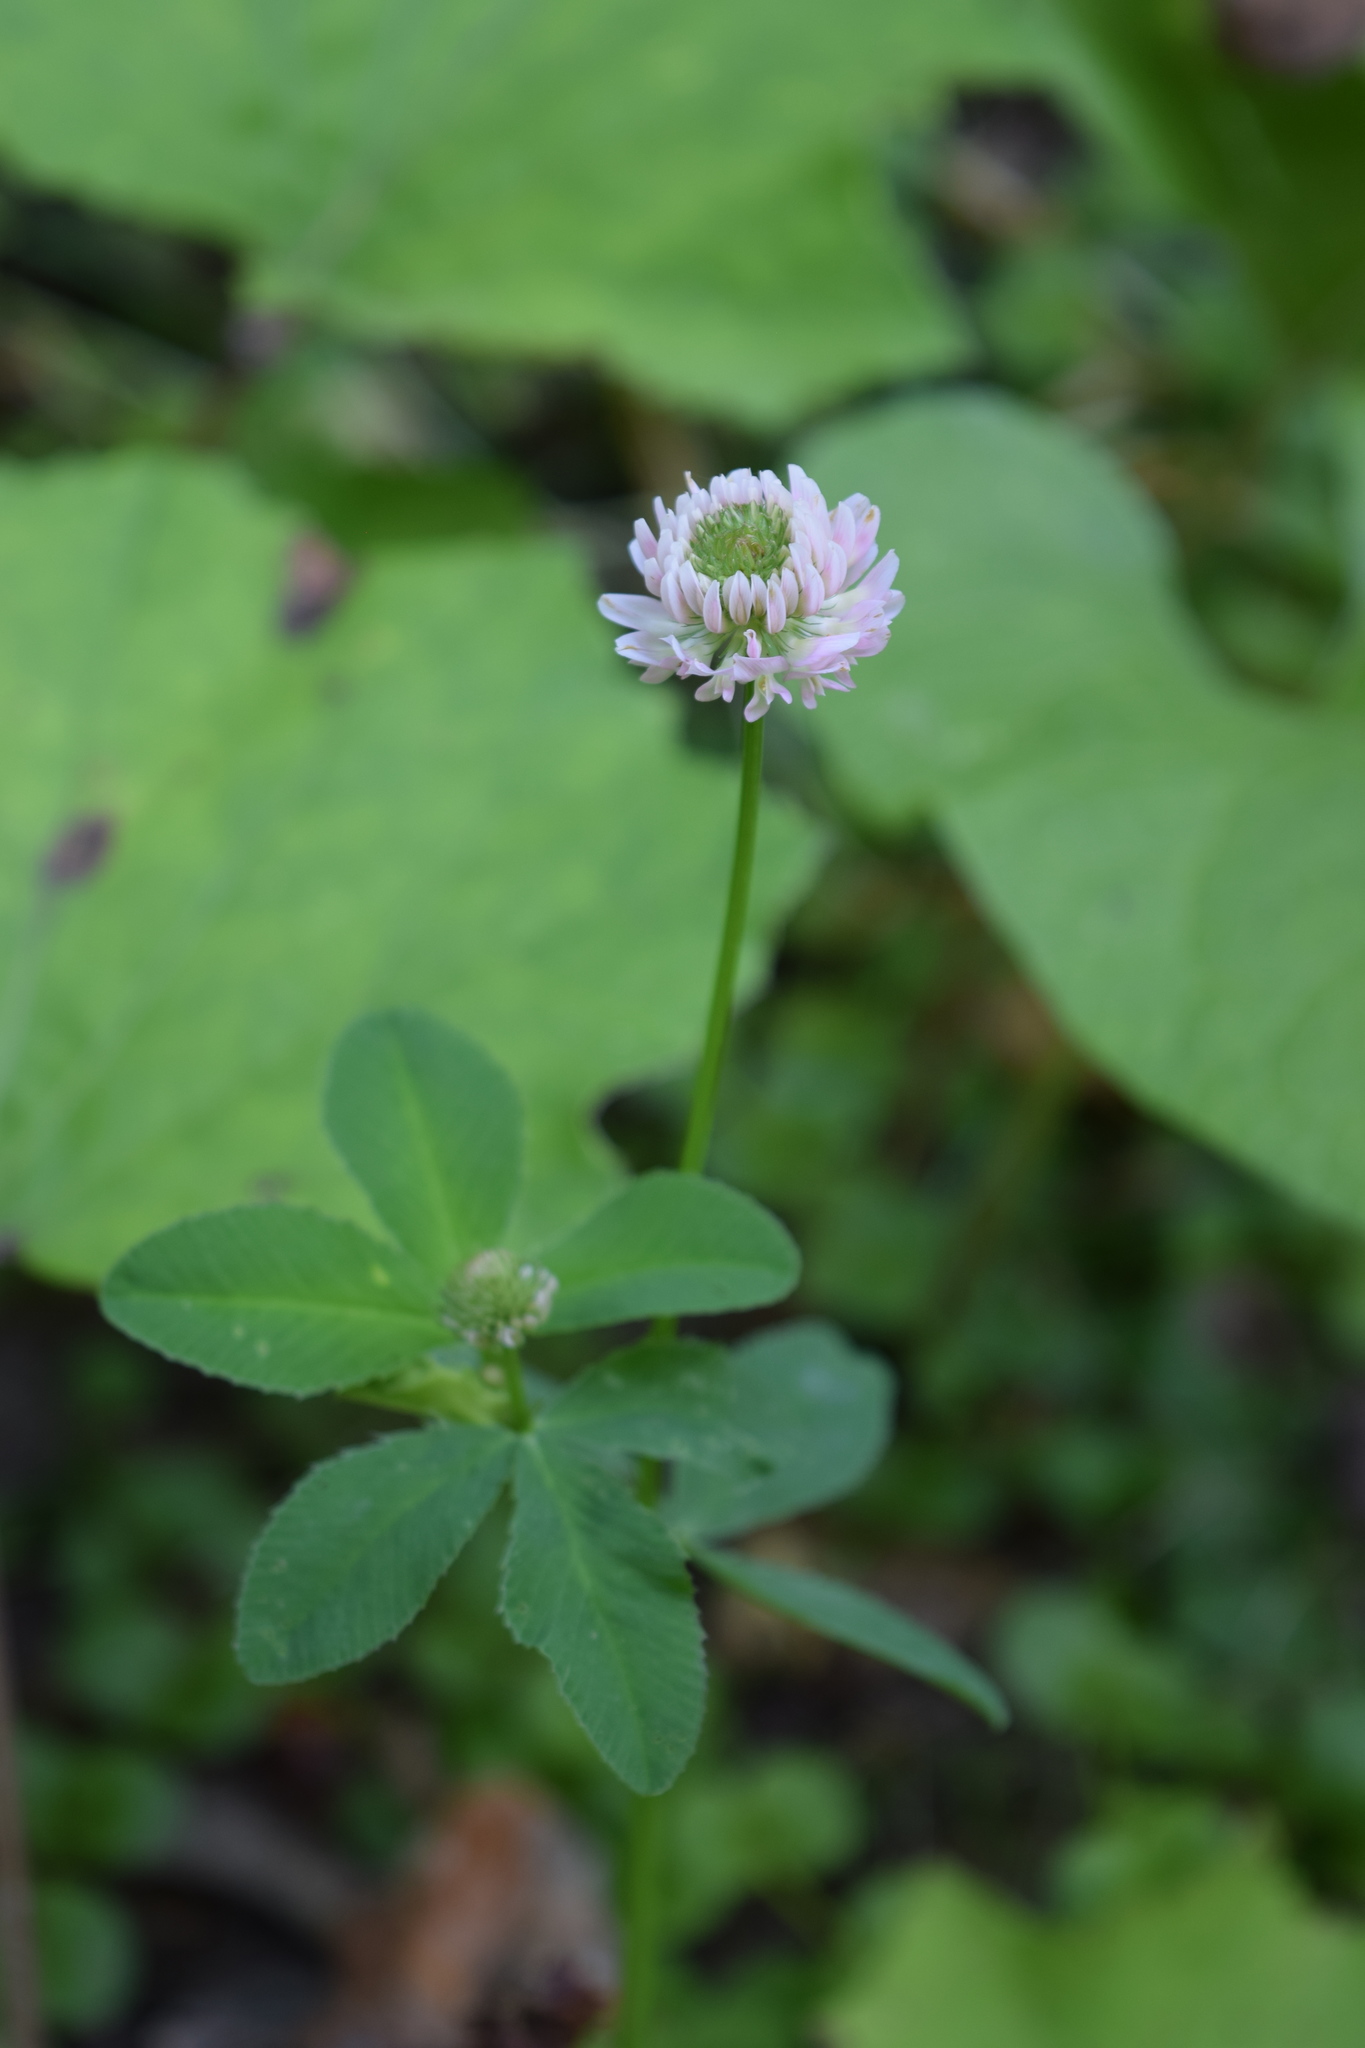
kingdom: Plantae
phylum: Tracheophyta
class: Magnoliopsida
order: Fabales
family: Fabaceae
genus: Trifolium
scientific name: Trifolium hybridum
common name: Alsike clover
